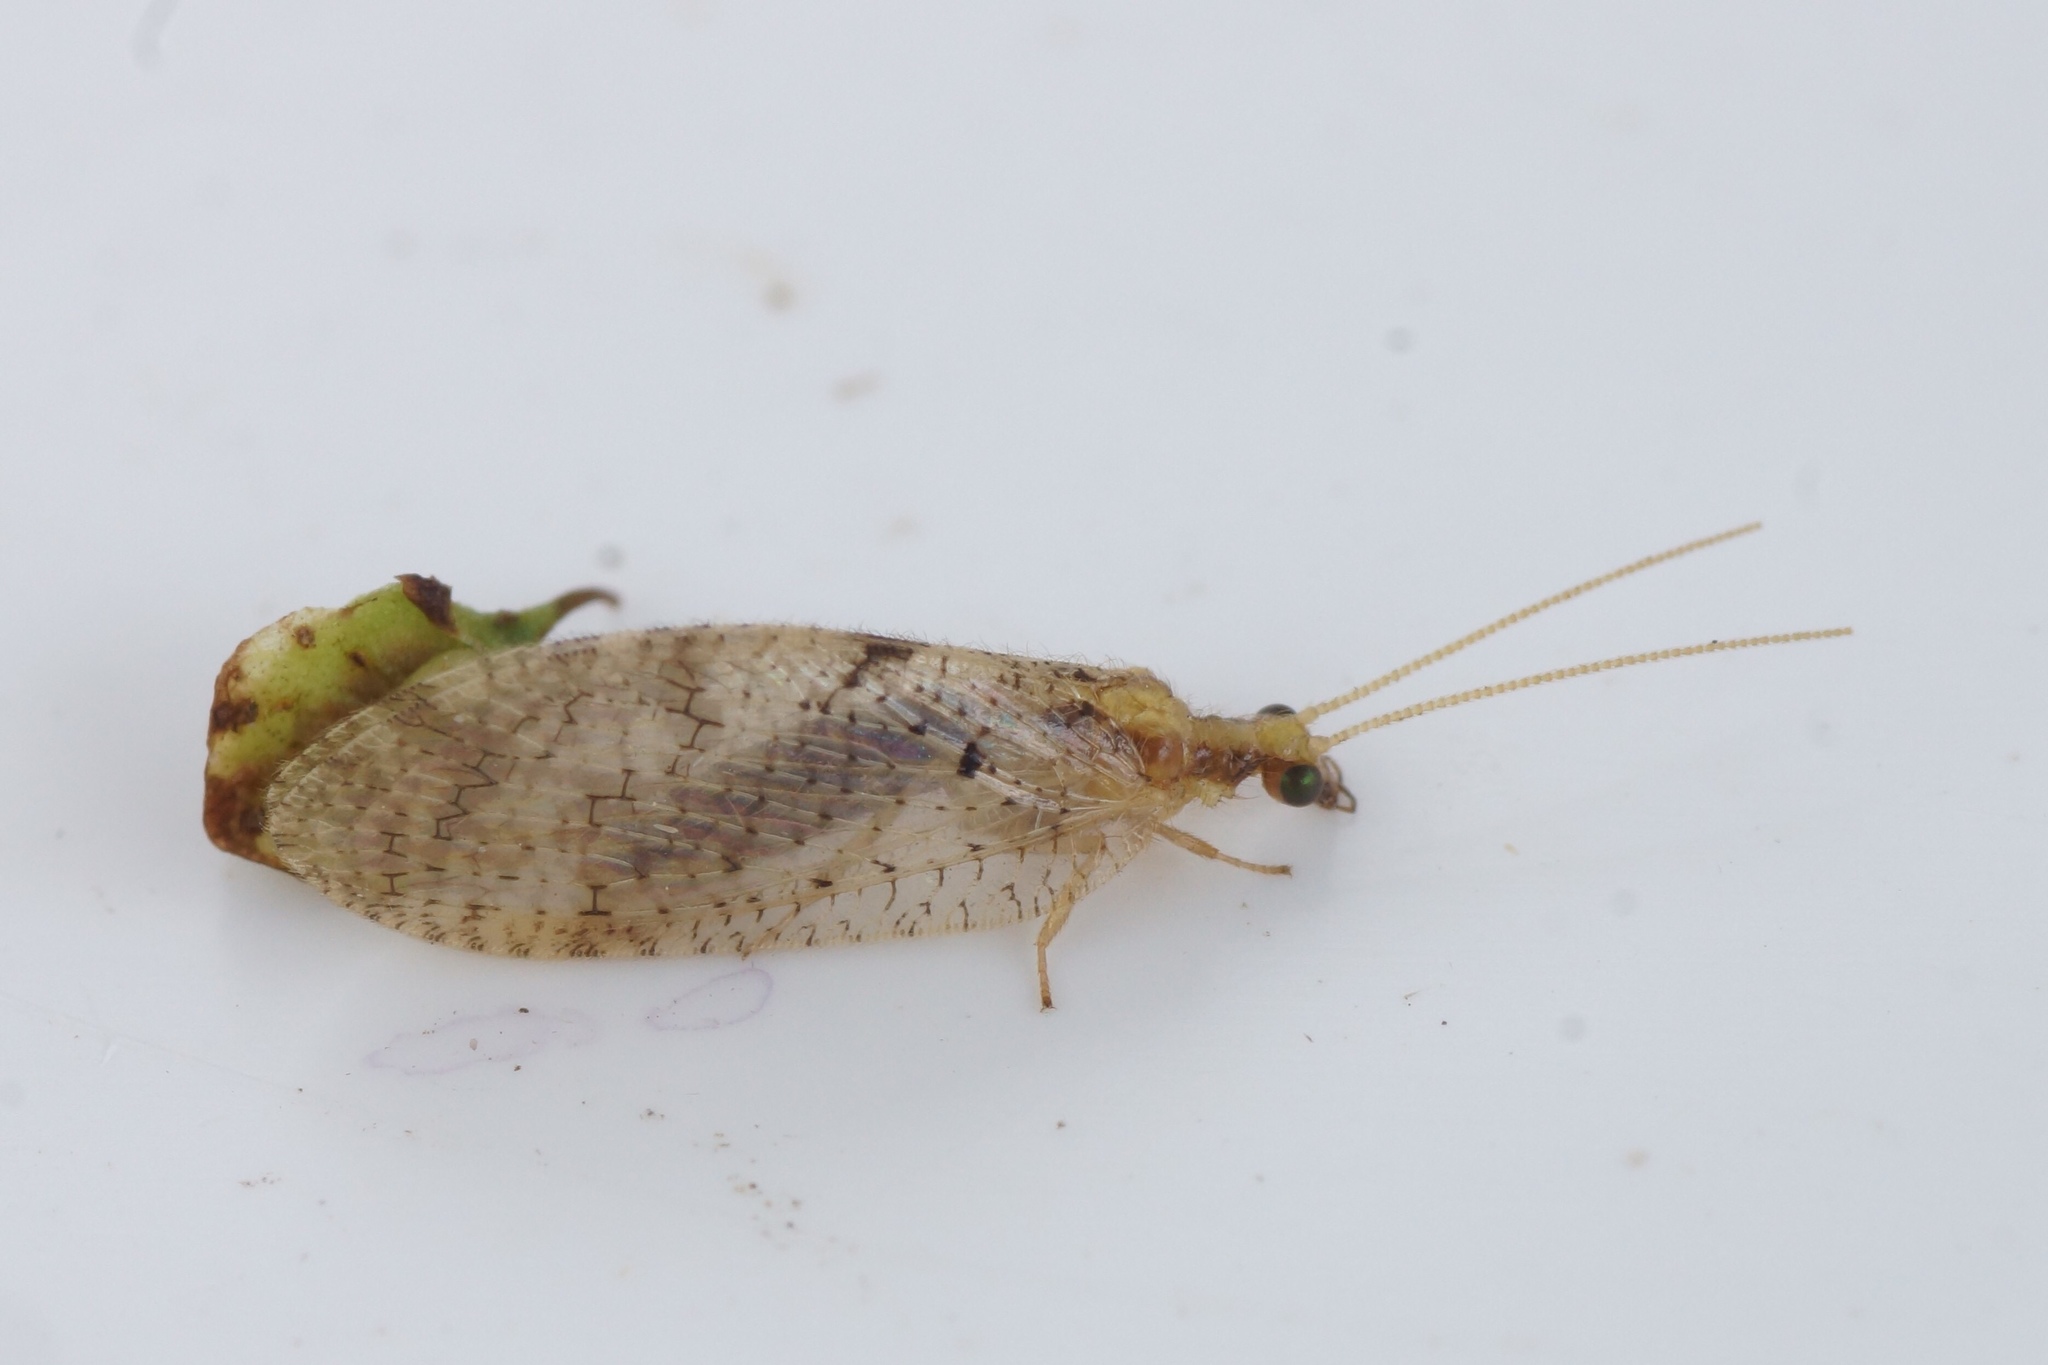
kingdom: Animalia
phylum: Arthropoda
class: Insecta
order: Neuroptera
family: Hemerobiidae
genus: Hemerobius
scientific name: Hemerobius perelegans
